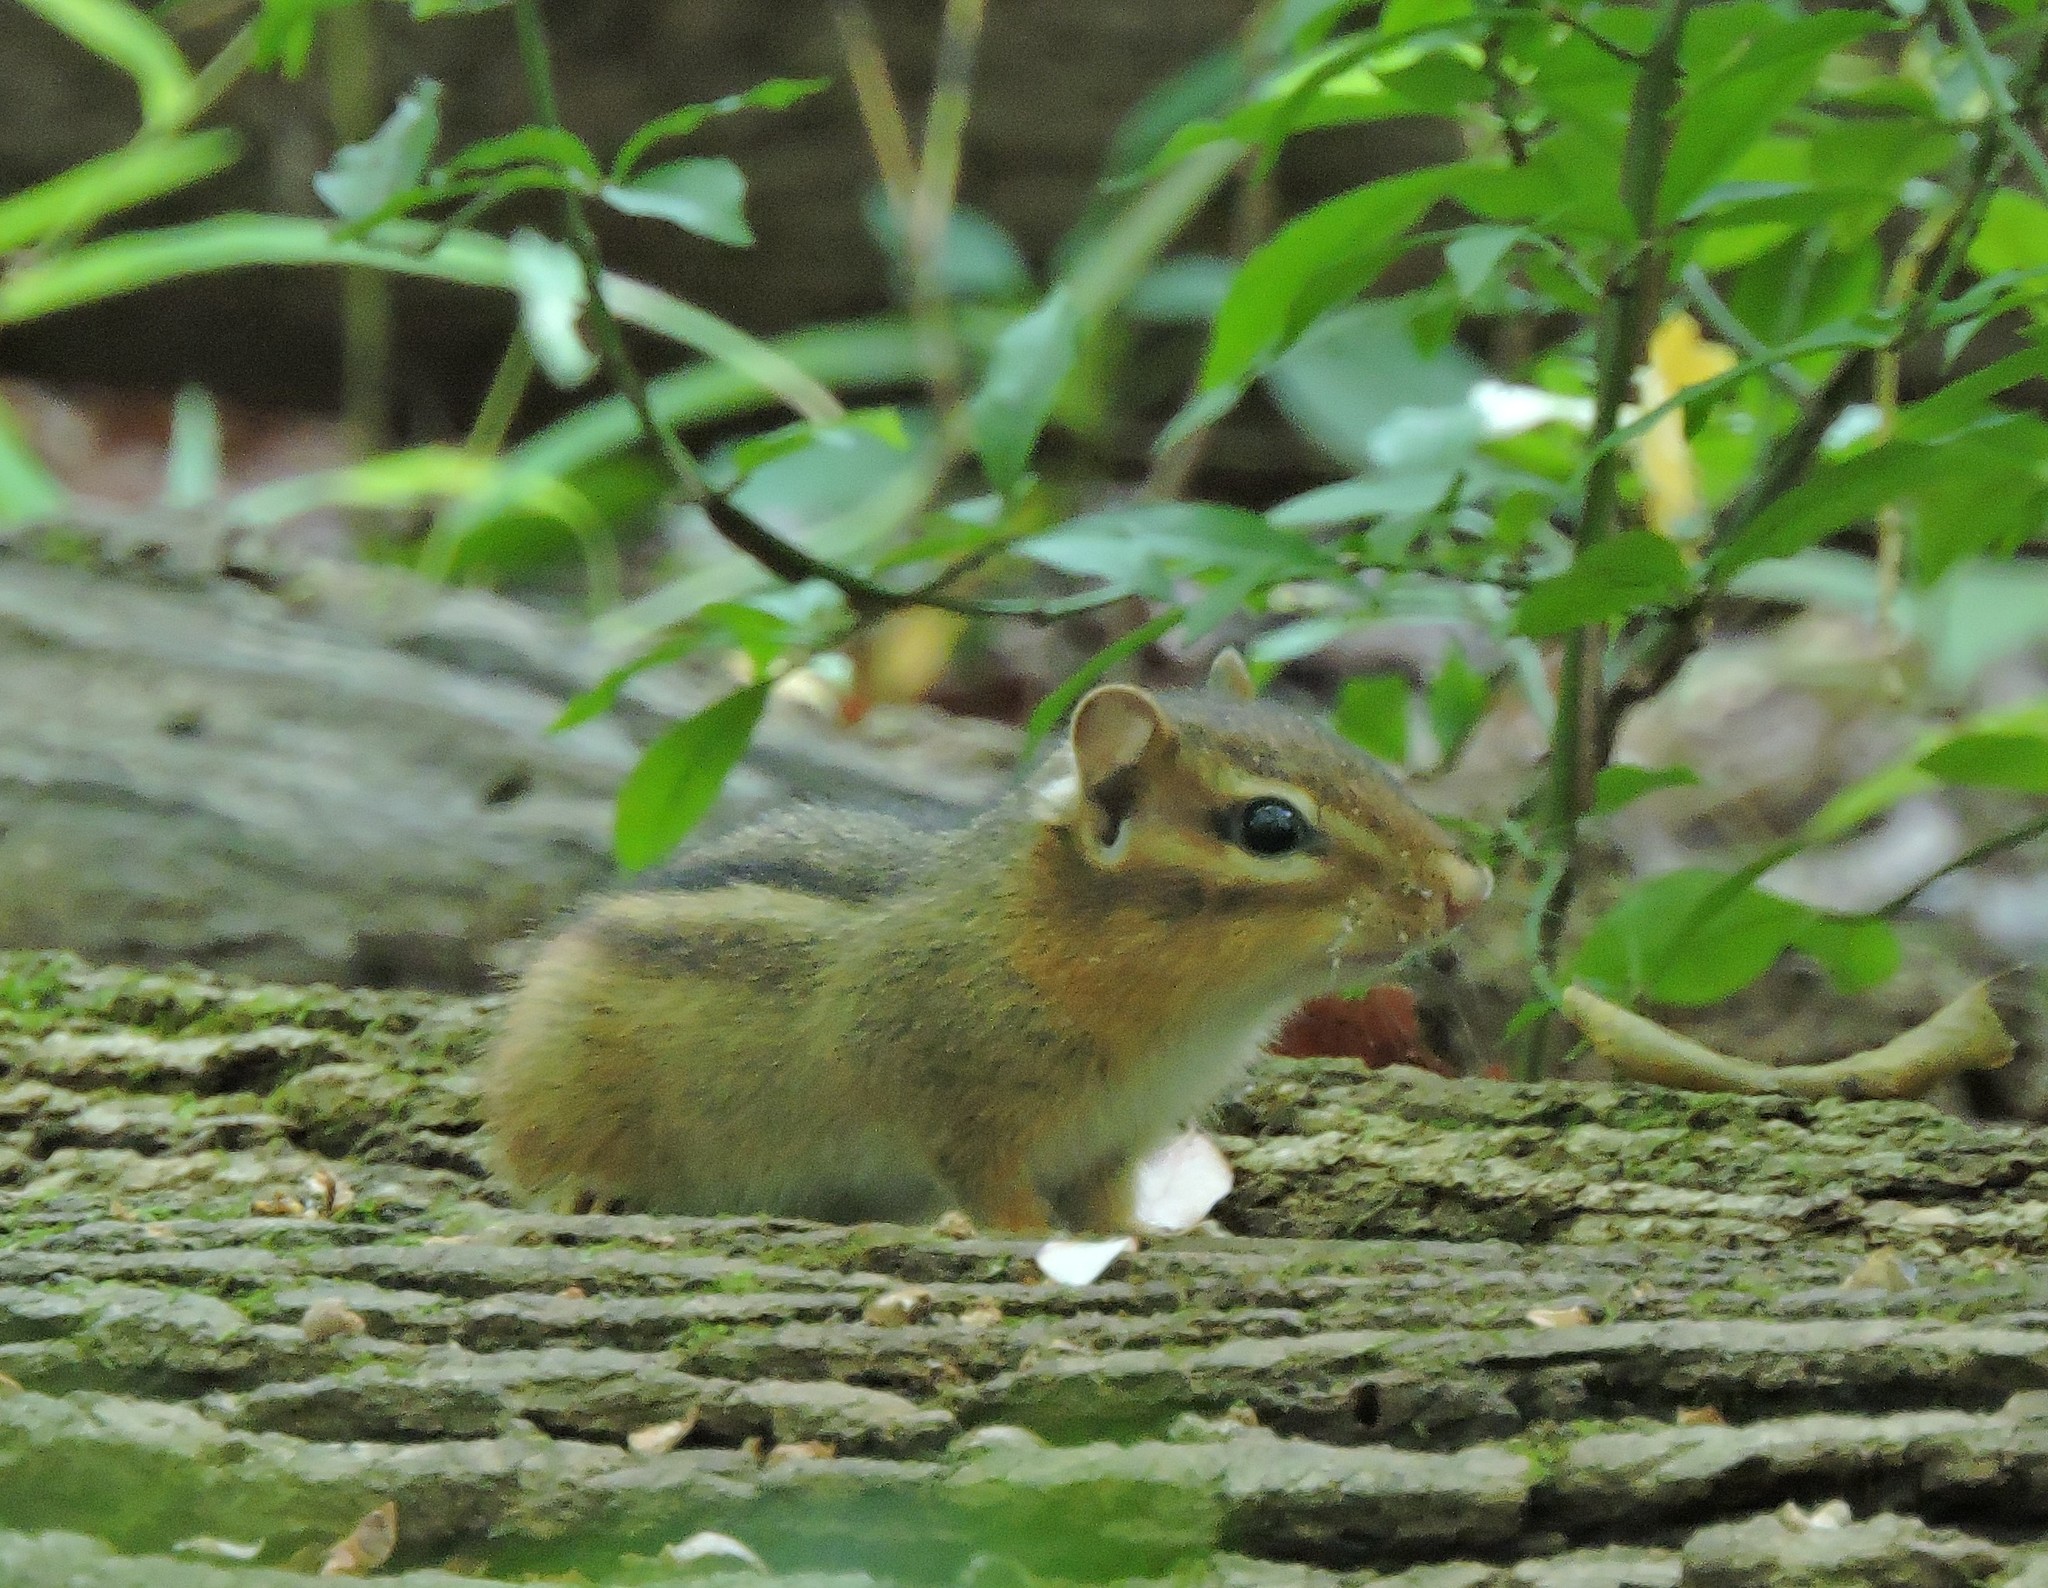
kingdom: Animalia
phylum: Chordata
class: Mammalia
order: Rodentia
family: Sciuridae
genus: Tamias
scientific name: Tamias striatus
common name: Eastern chipmunk
